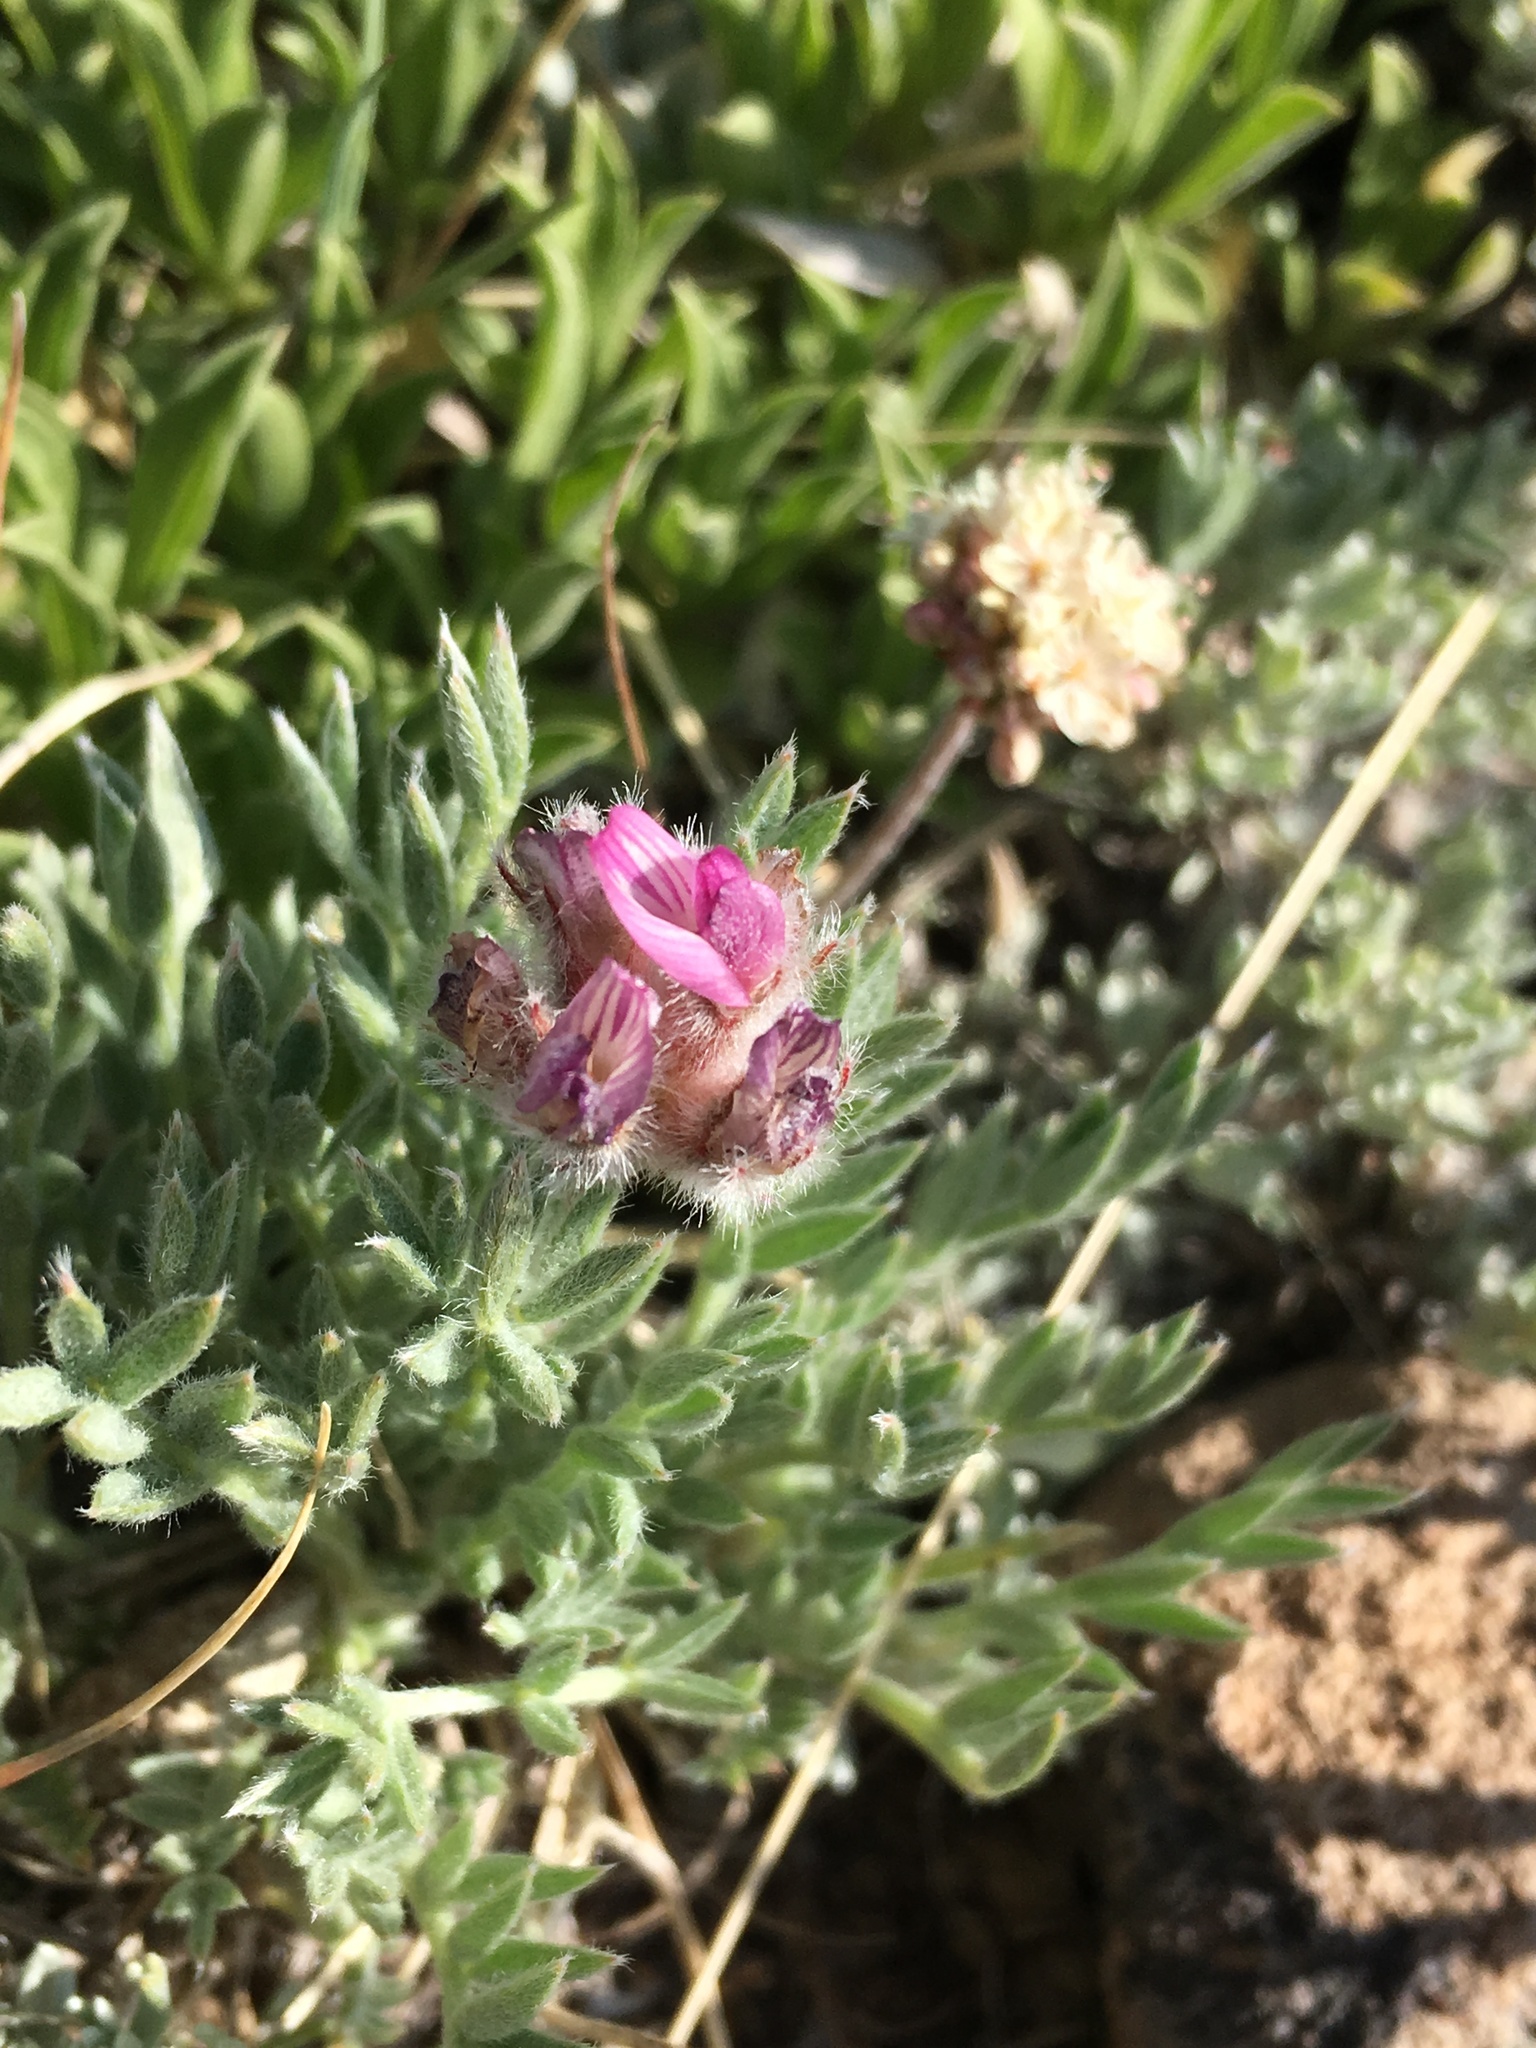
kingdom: Plantae
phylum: Tracheophyta
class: Magnoliopsida
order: Fabales
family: Fabaceae
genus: Astragalus
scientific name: Astragalus austiniae
